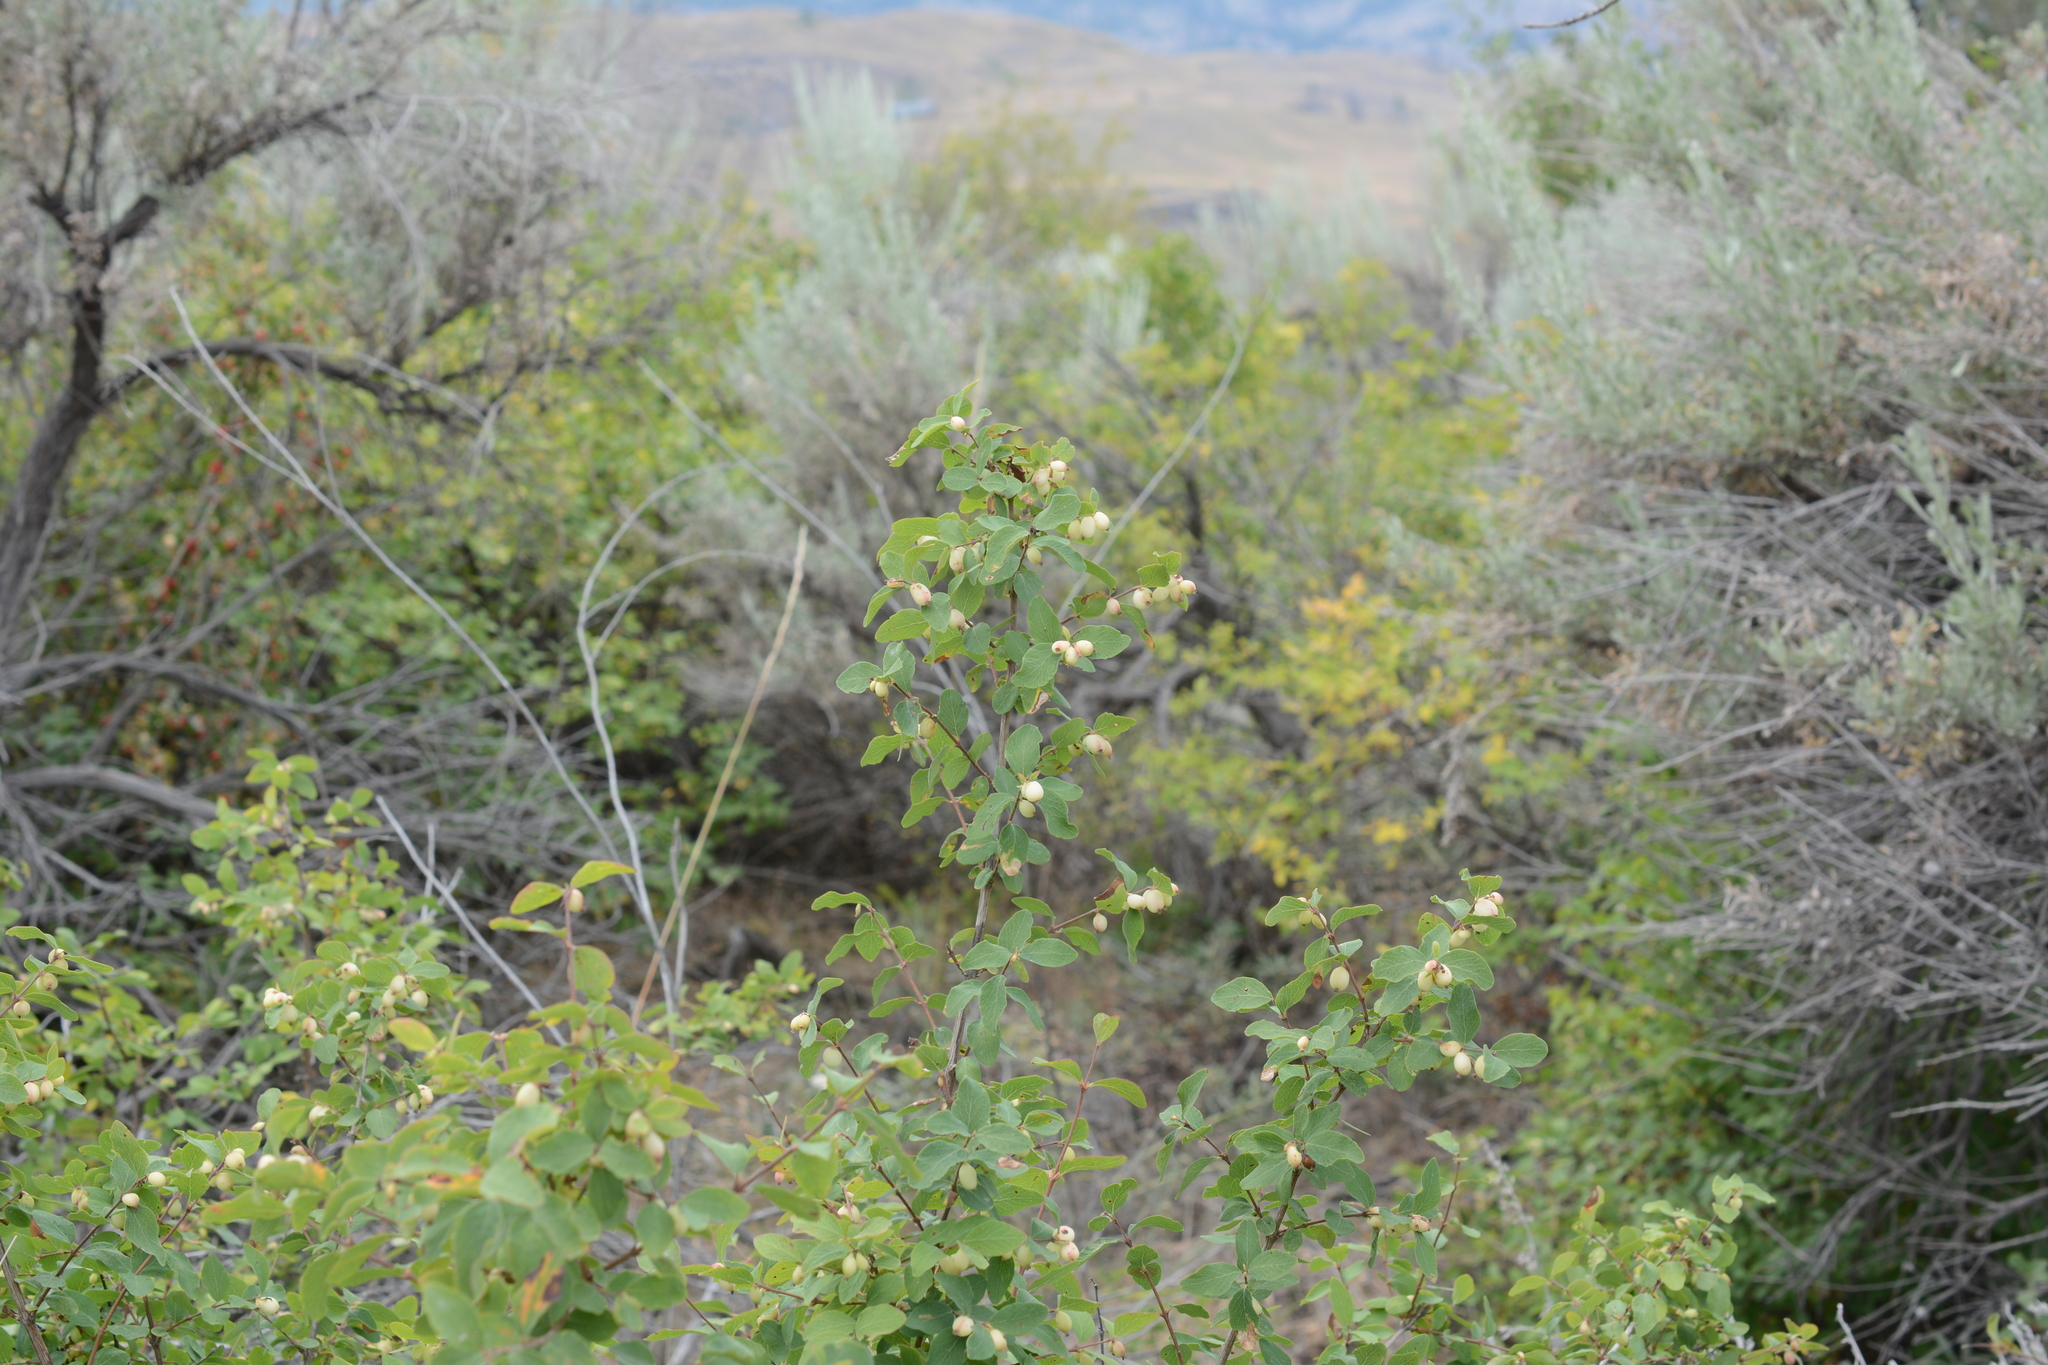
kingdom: Plantae
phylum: Tracheophyta
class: Magnoliopsida
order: Dipsacales
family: Caprifoliaceae
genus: Symphoricarpos
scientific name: Symphoricarpos albus
